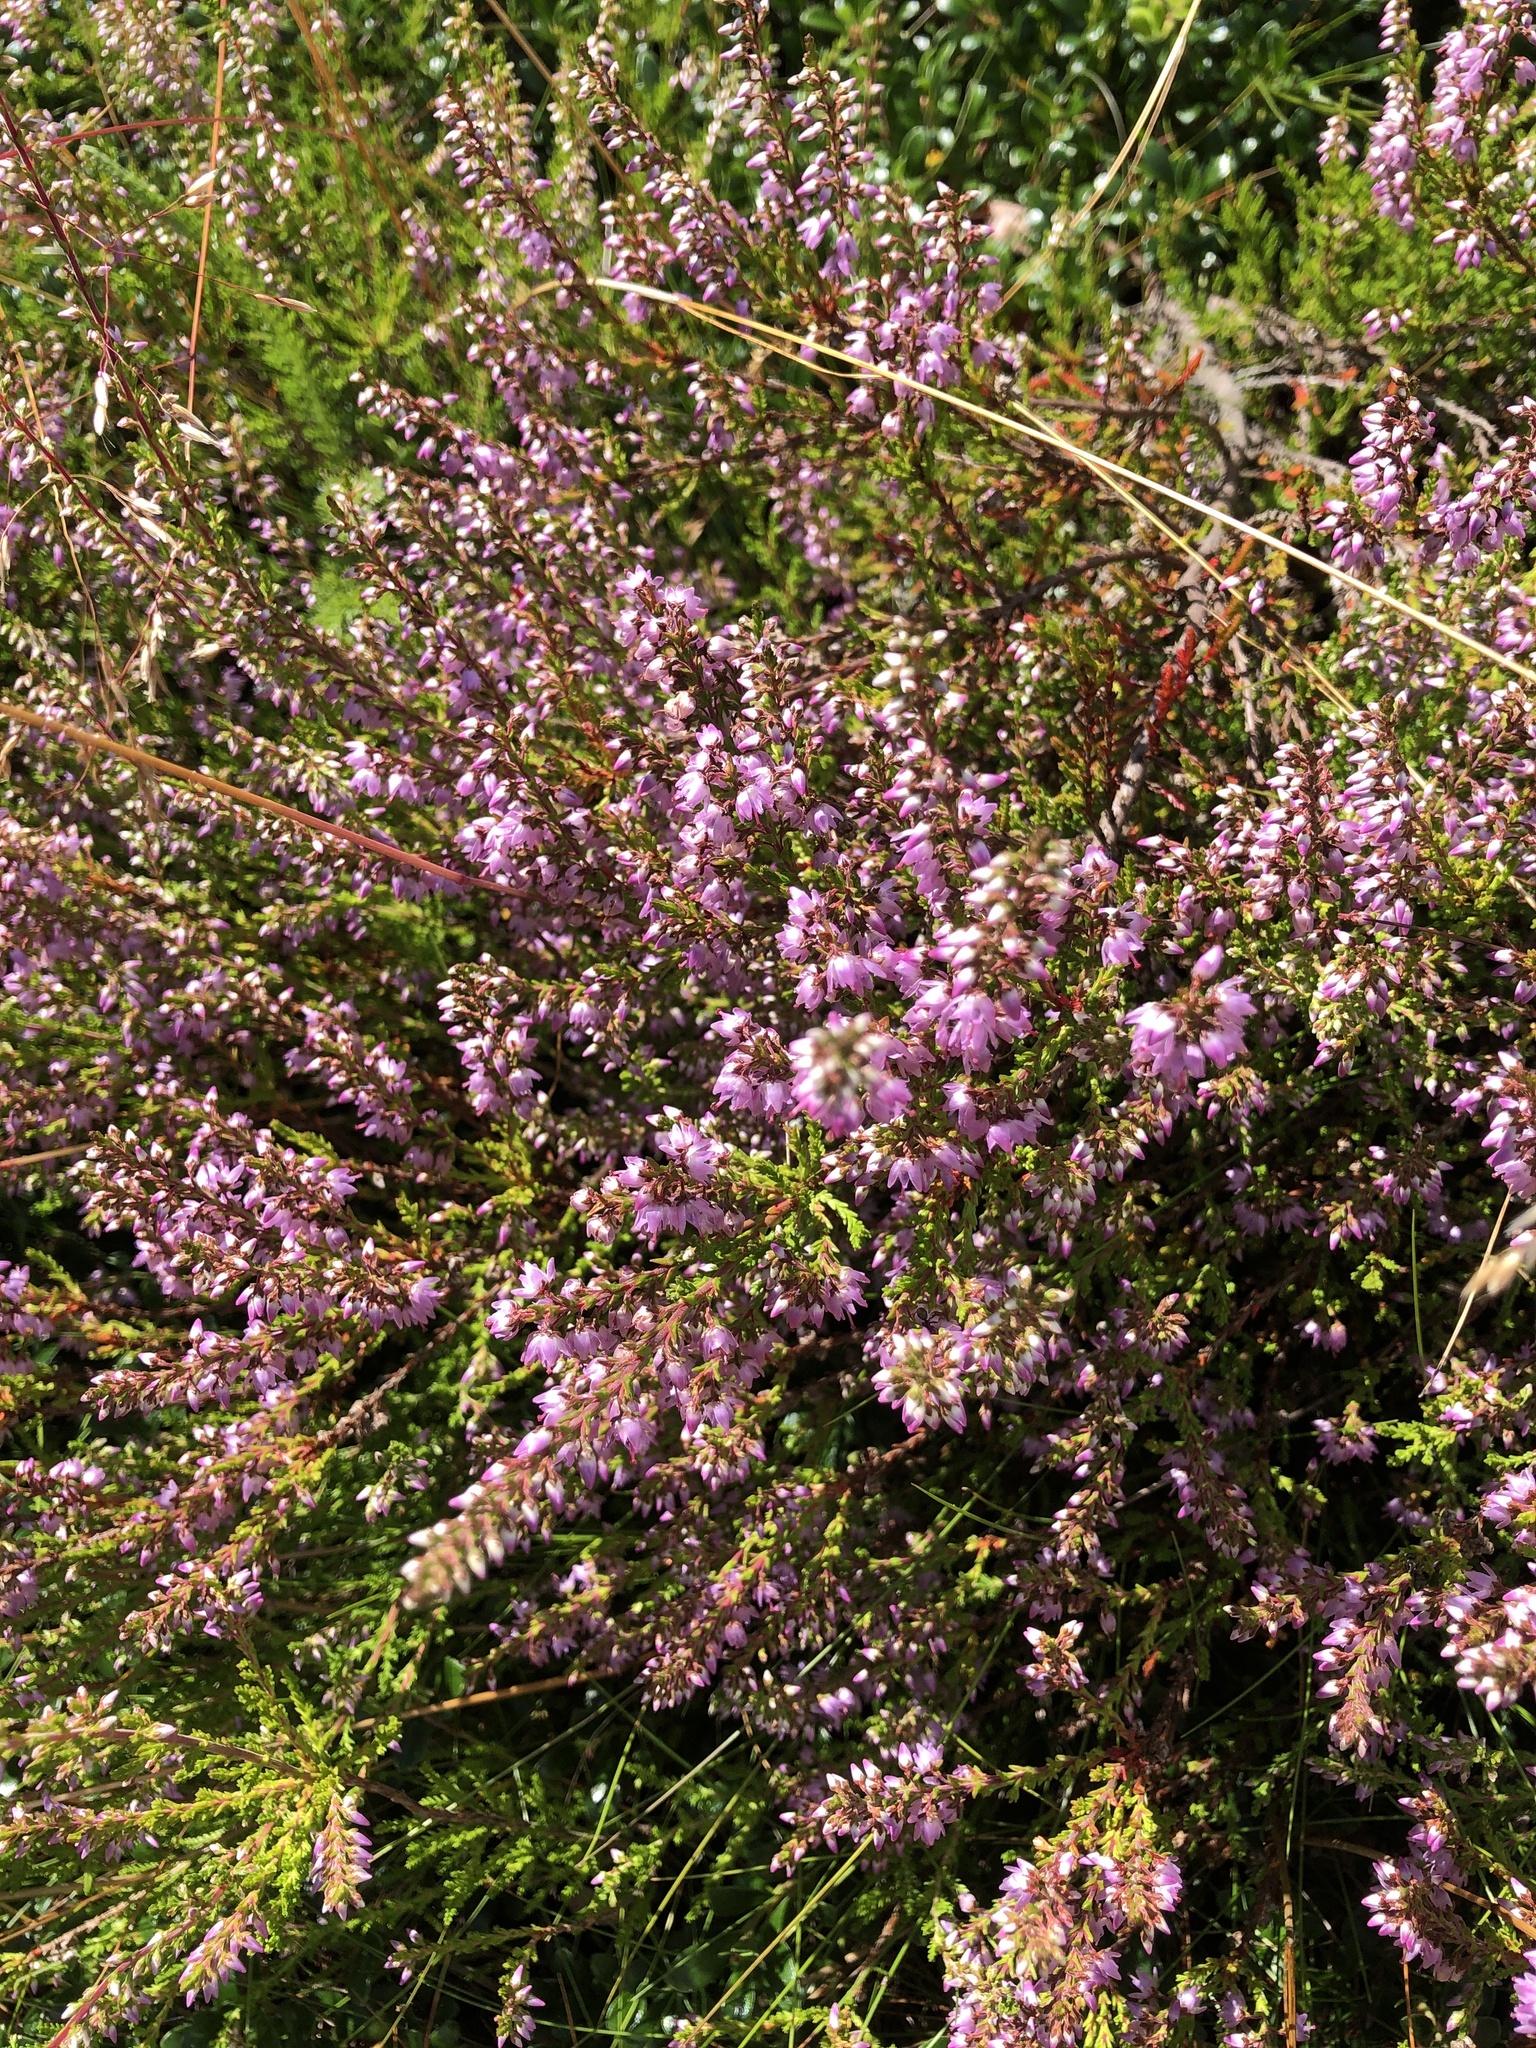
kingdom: Plantae
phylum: Tracheophyta
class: Magnoliopsida
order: Ericales
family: Ericaceae
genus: Calluna
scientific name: Calluna vulgaris
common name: Heather
